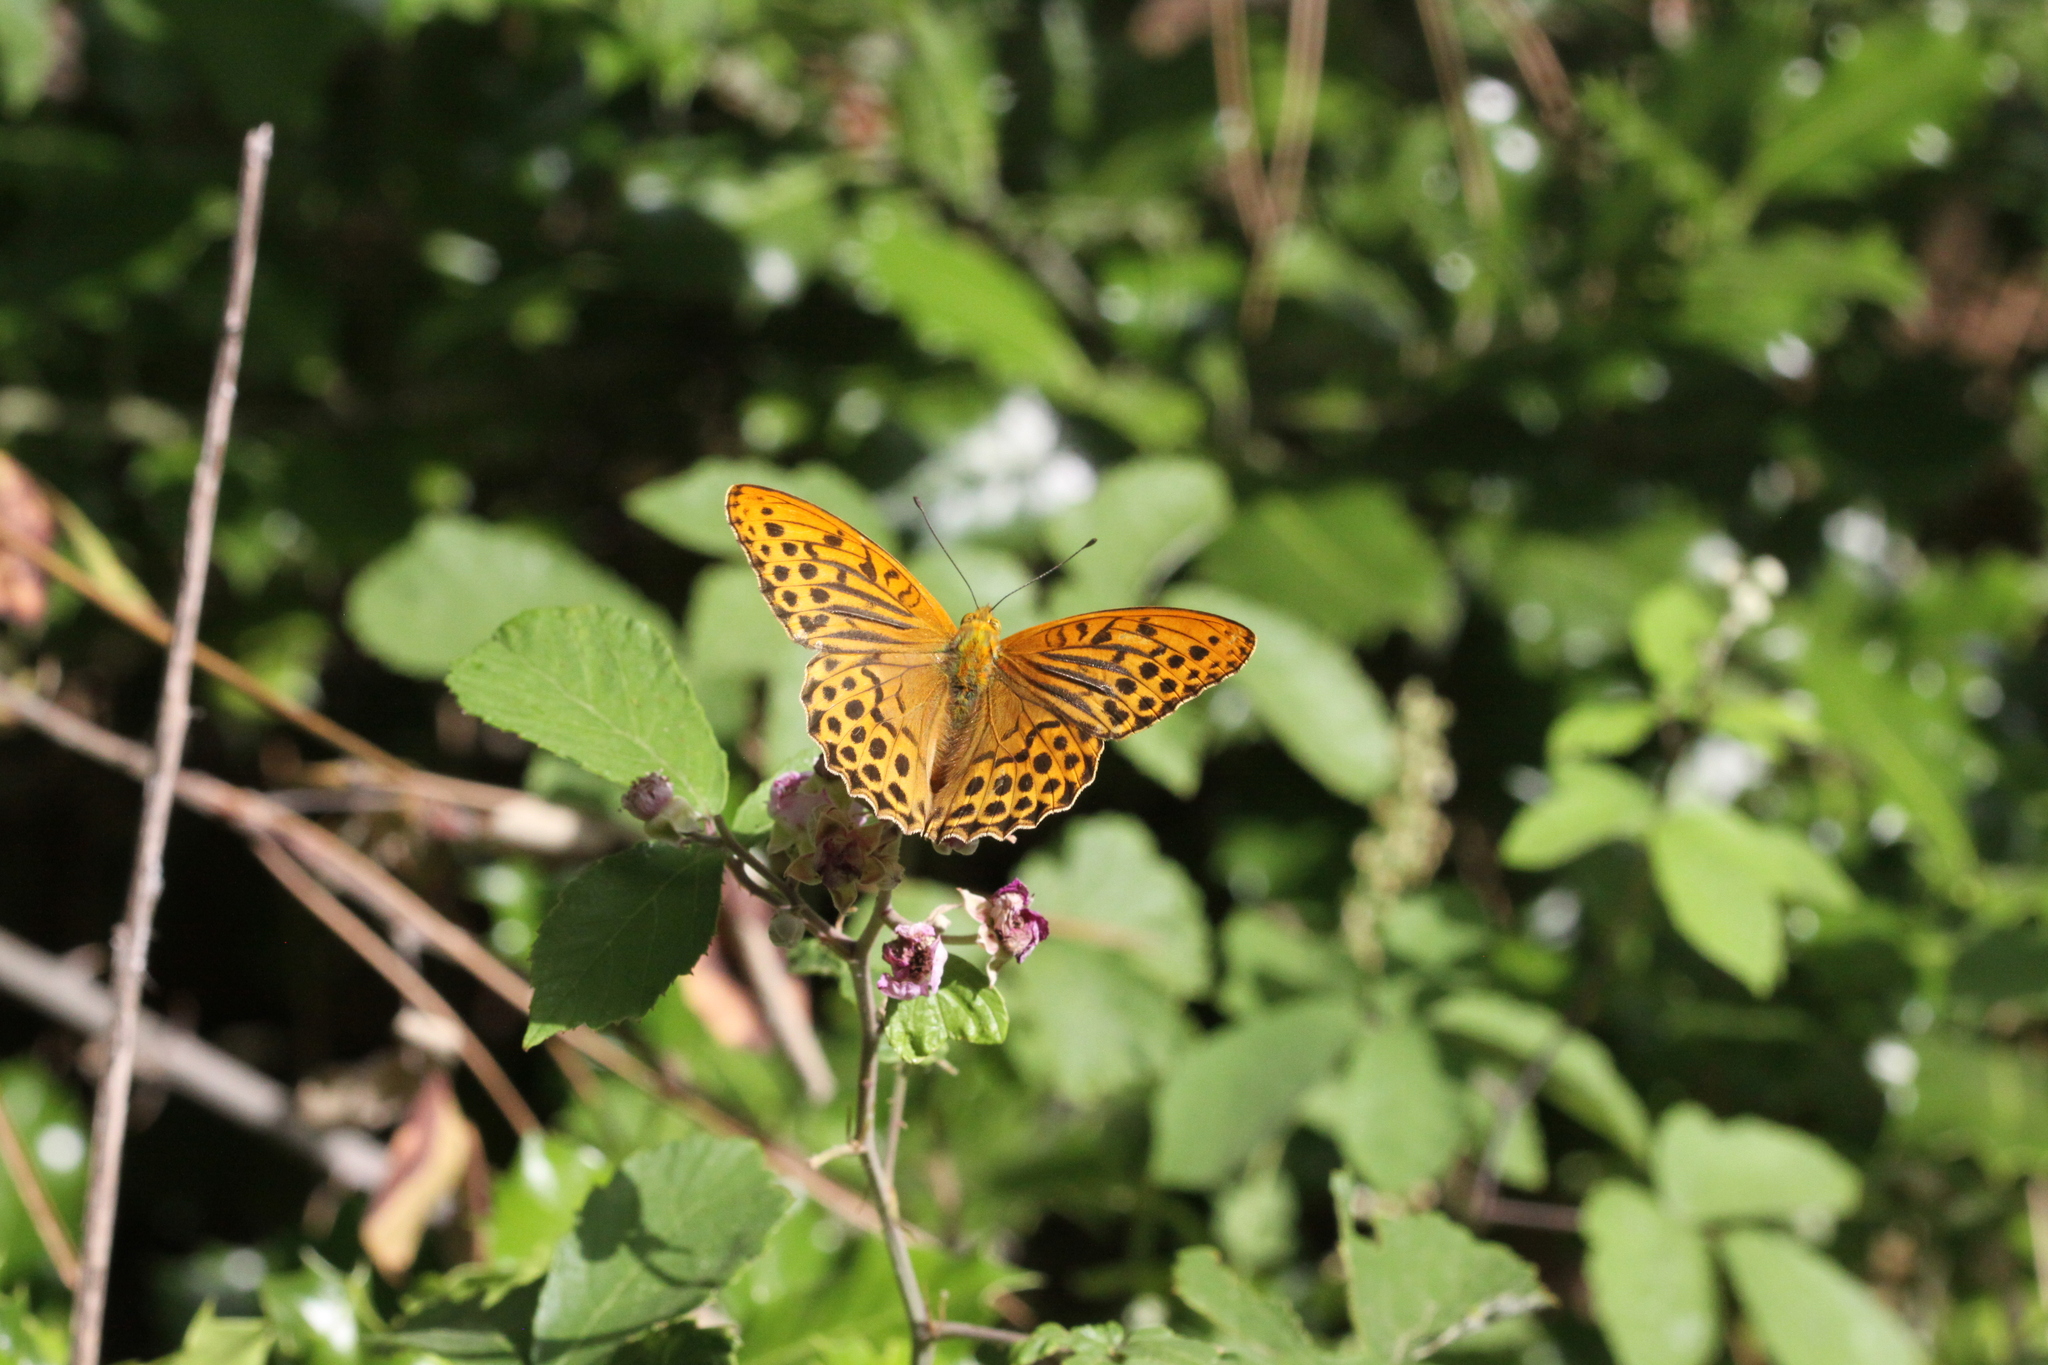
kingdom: Animalia
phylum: Arthropoda
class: Insecta
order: Lepidoptera
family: Nymphalidae
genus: Argynnis
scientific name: Argynnis paphia
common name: Silver-washed fritillary
